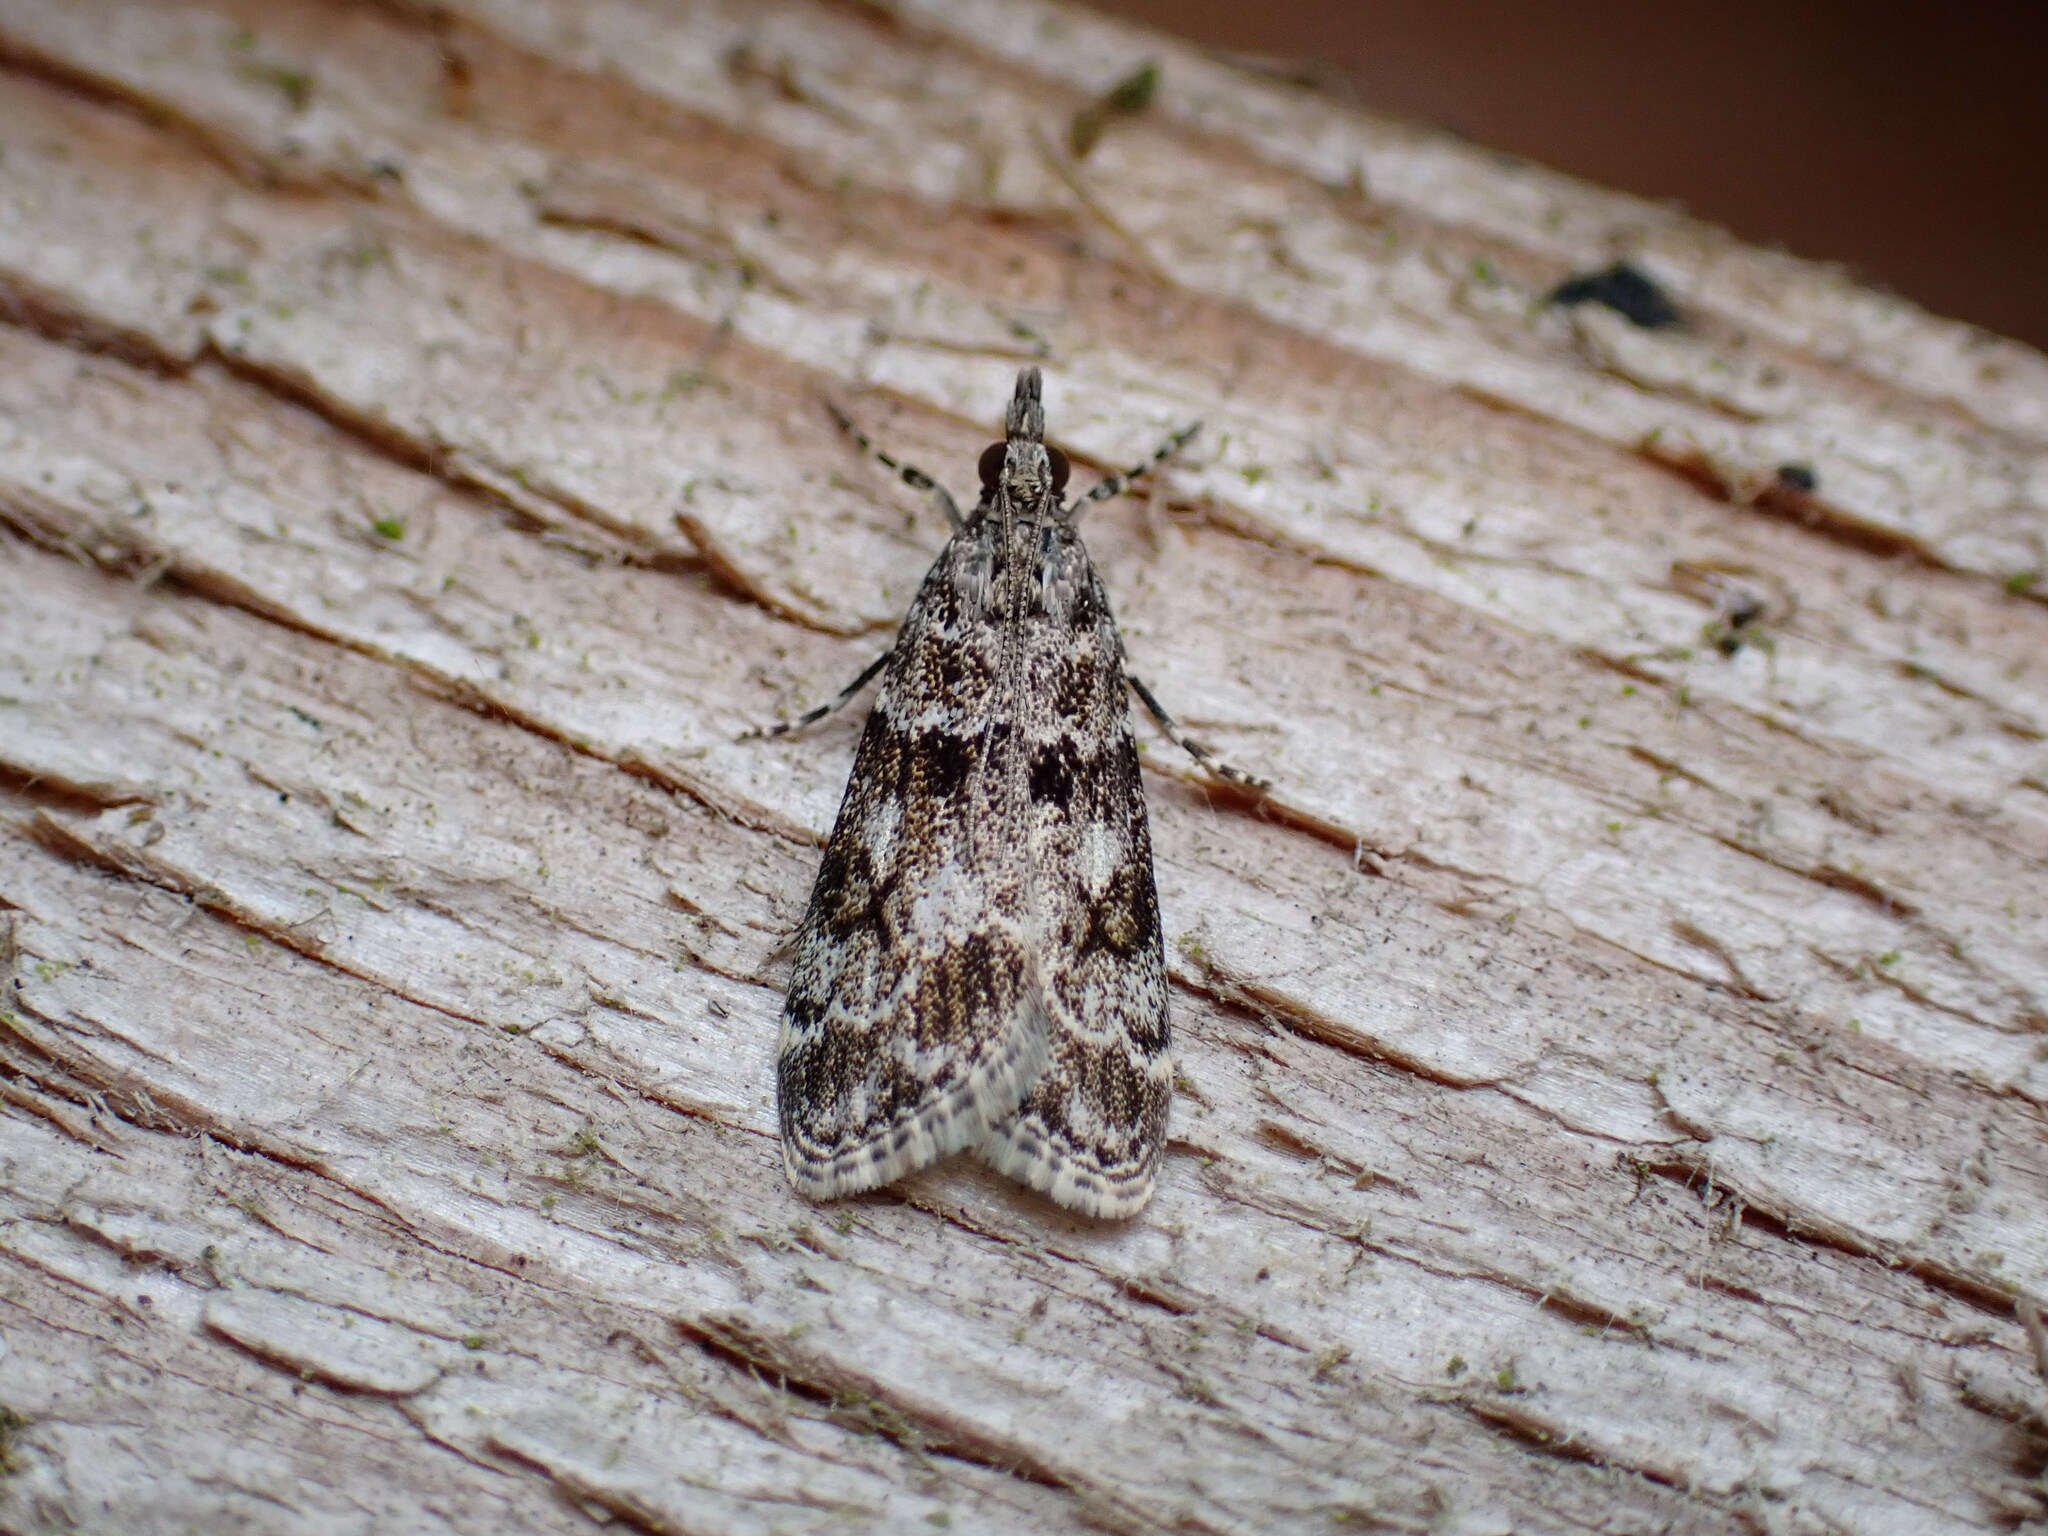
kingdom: Animalia
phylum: Arthropoda
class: Insecta
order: Lepidoptera
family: Crambidae
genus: Eudonia
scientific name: Eudonia mercurella
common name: Small grey
